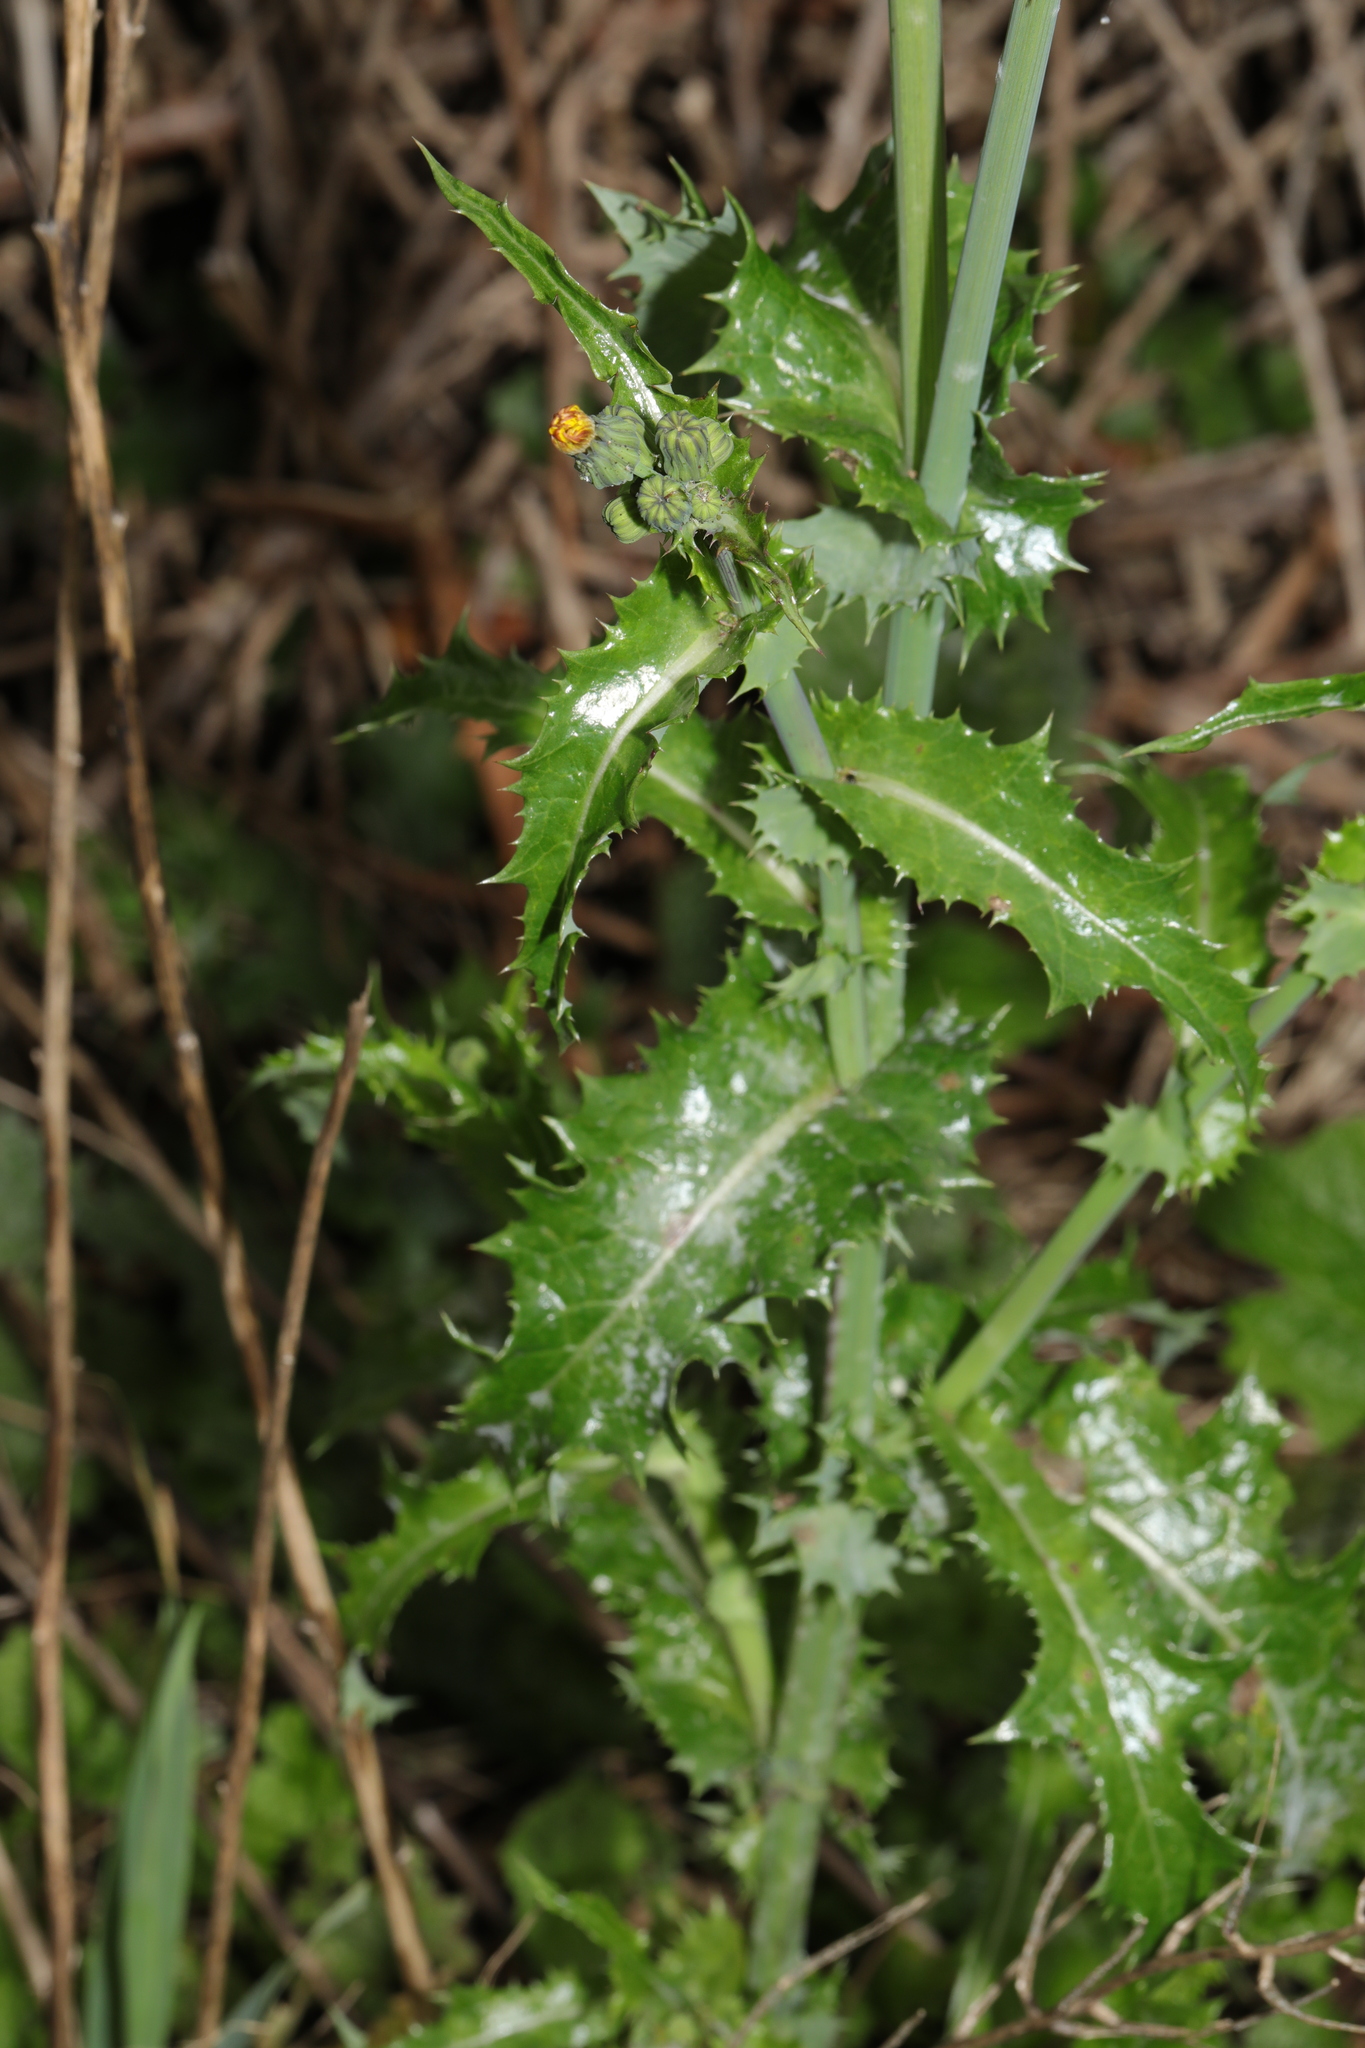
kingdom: Plantae
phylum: Tracheophyta
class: Magnoliopsida
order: Asterales
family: Asteraceae
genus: Sonchus
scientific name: Sonchus asper
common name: Prickly sow-thistle
